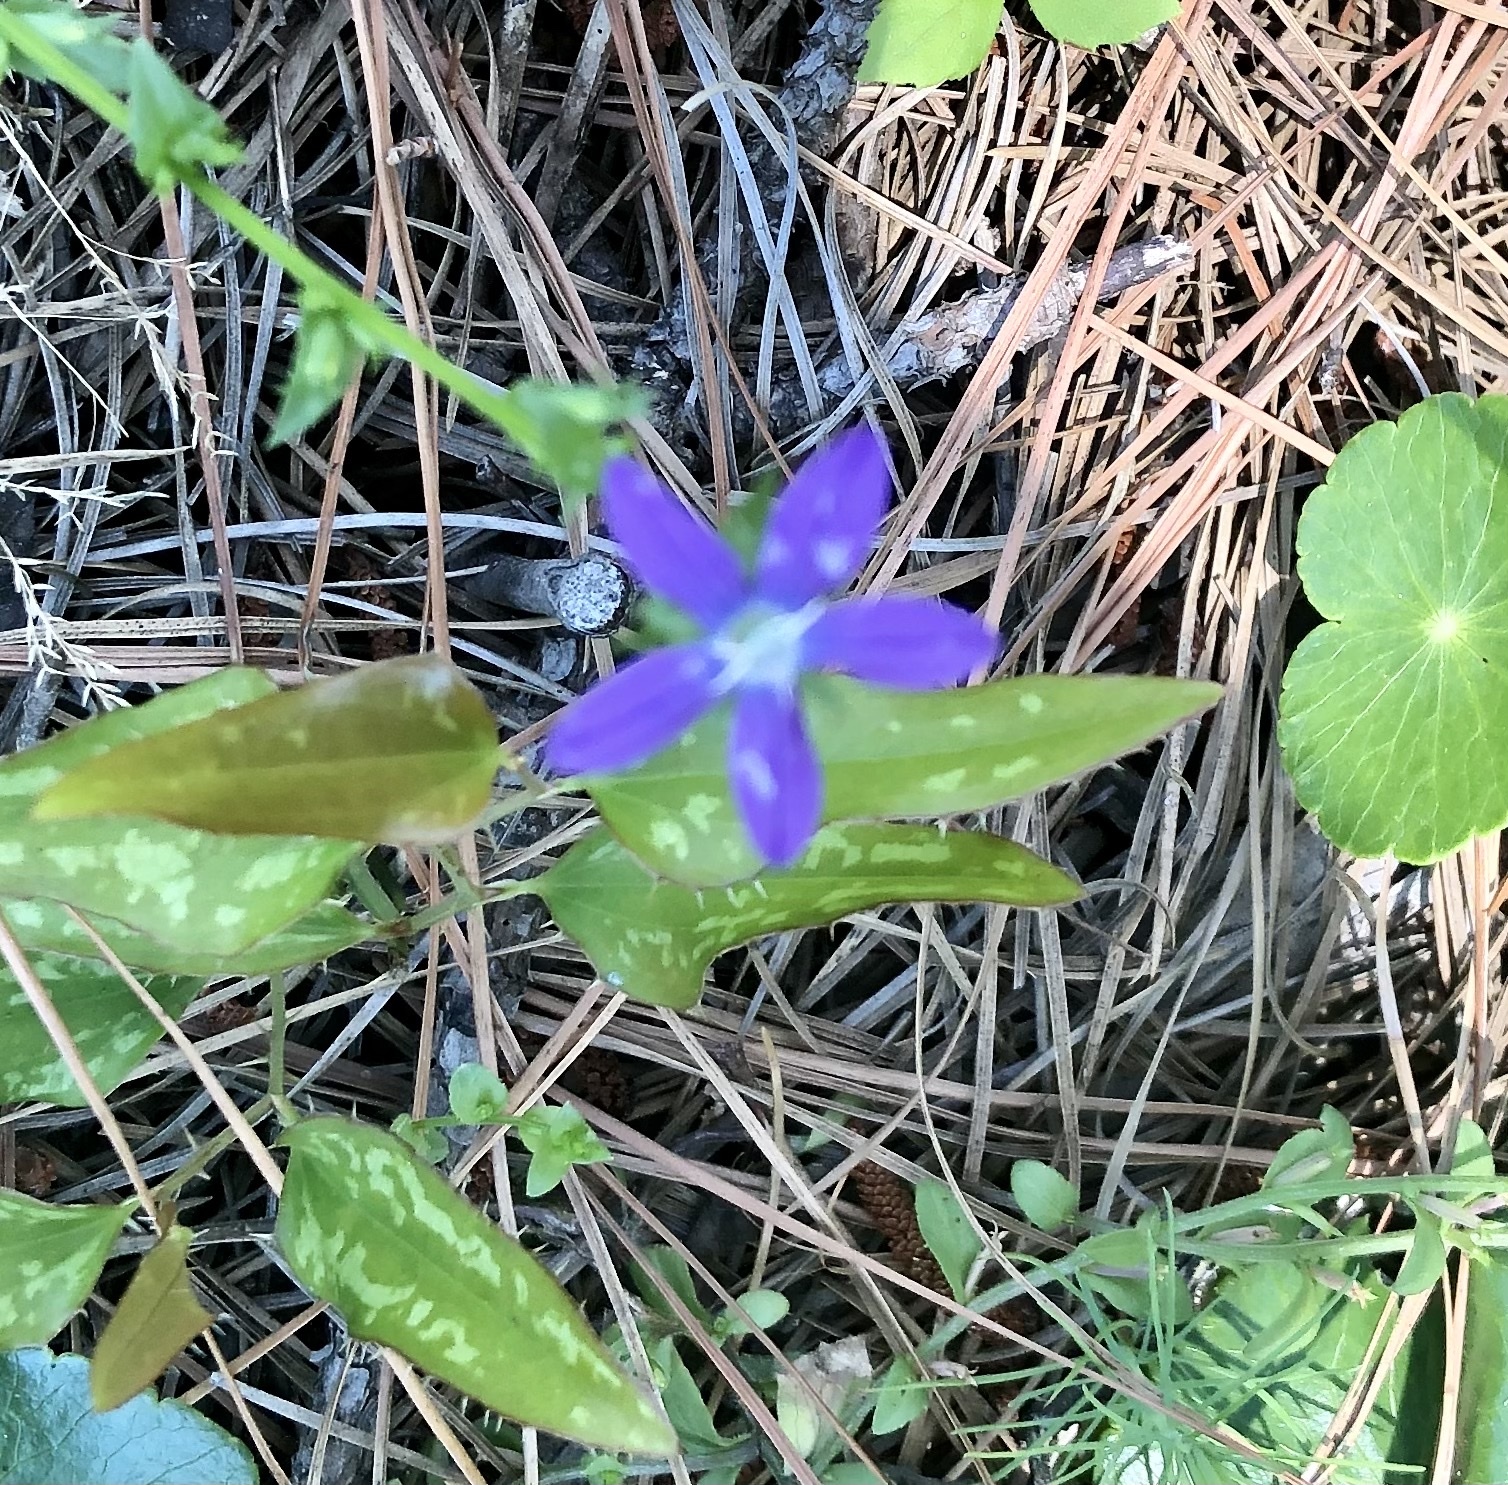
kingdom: Plantae
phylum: Tracheophyta
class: Magnoliopsida
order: Asterales
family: Campanulaceae
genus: Triodanis
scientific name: Triodanis biflora
